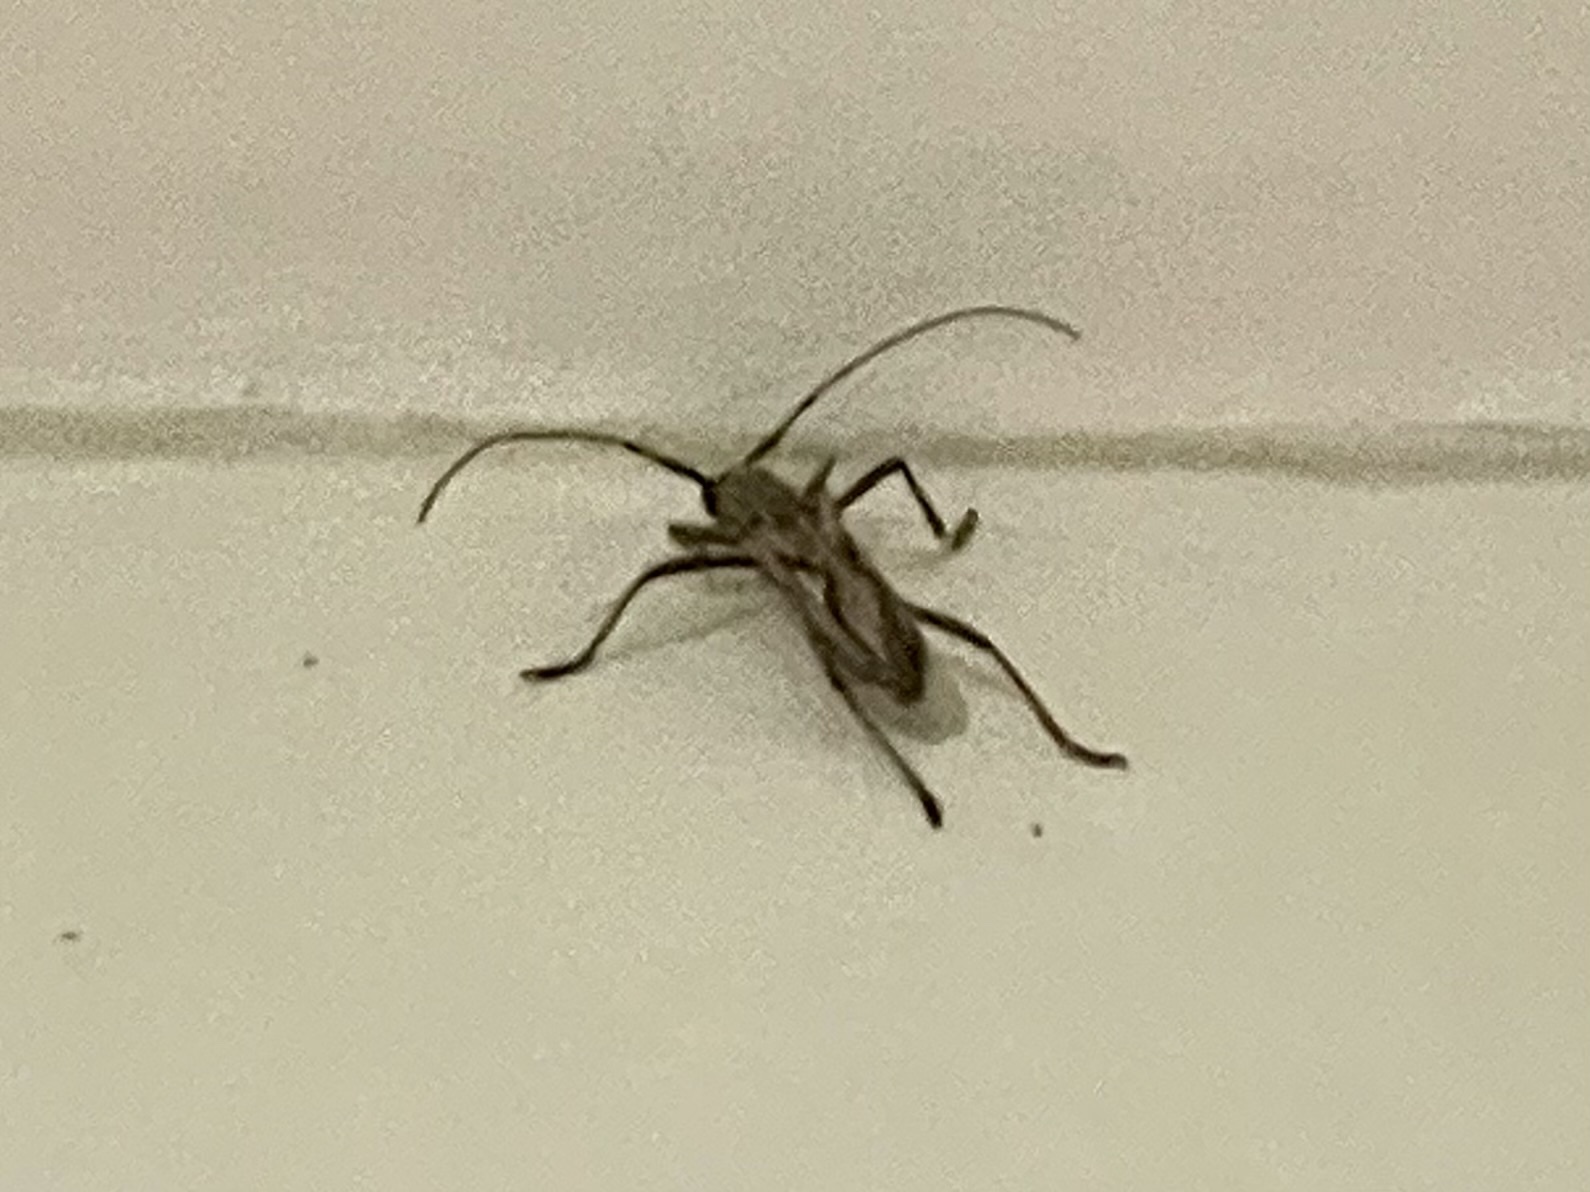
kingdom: Animalia
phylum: Arthropoda
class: Insecta
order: Coleoptera
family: Cerambycidae
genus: Eburia
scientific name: Eburia stigma
